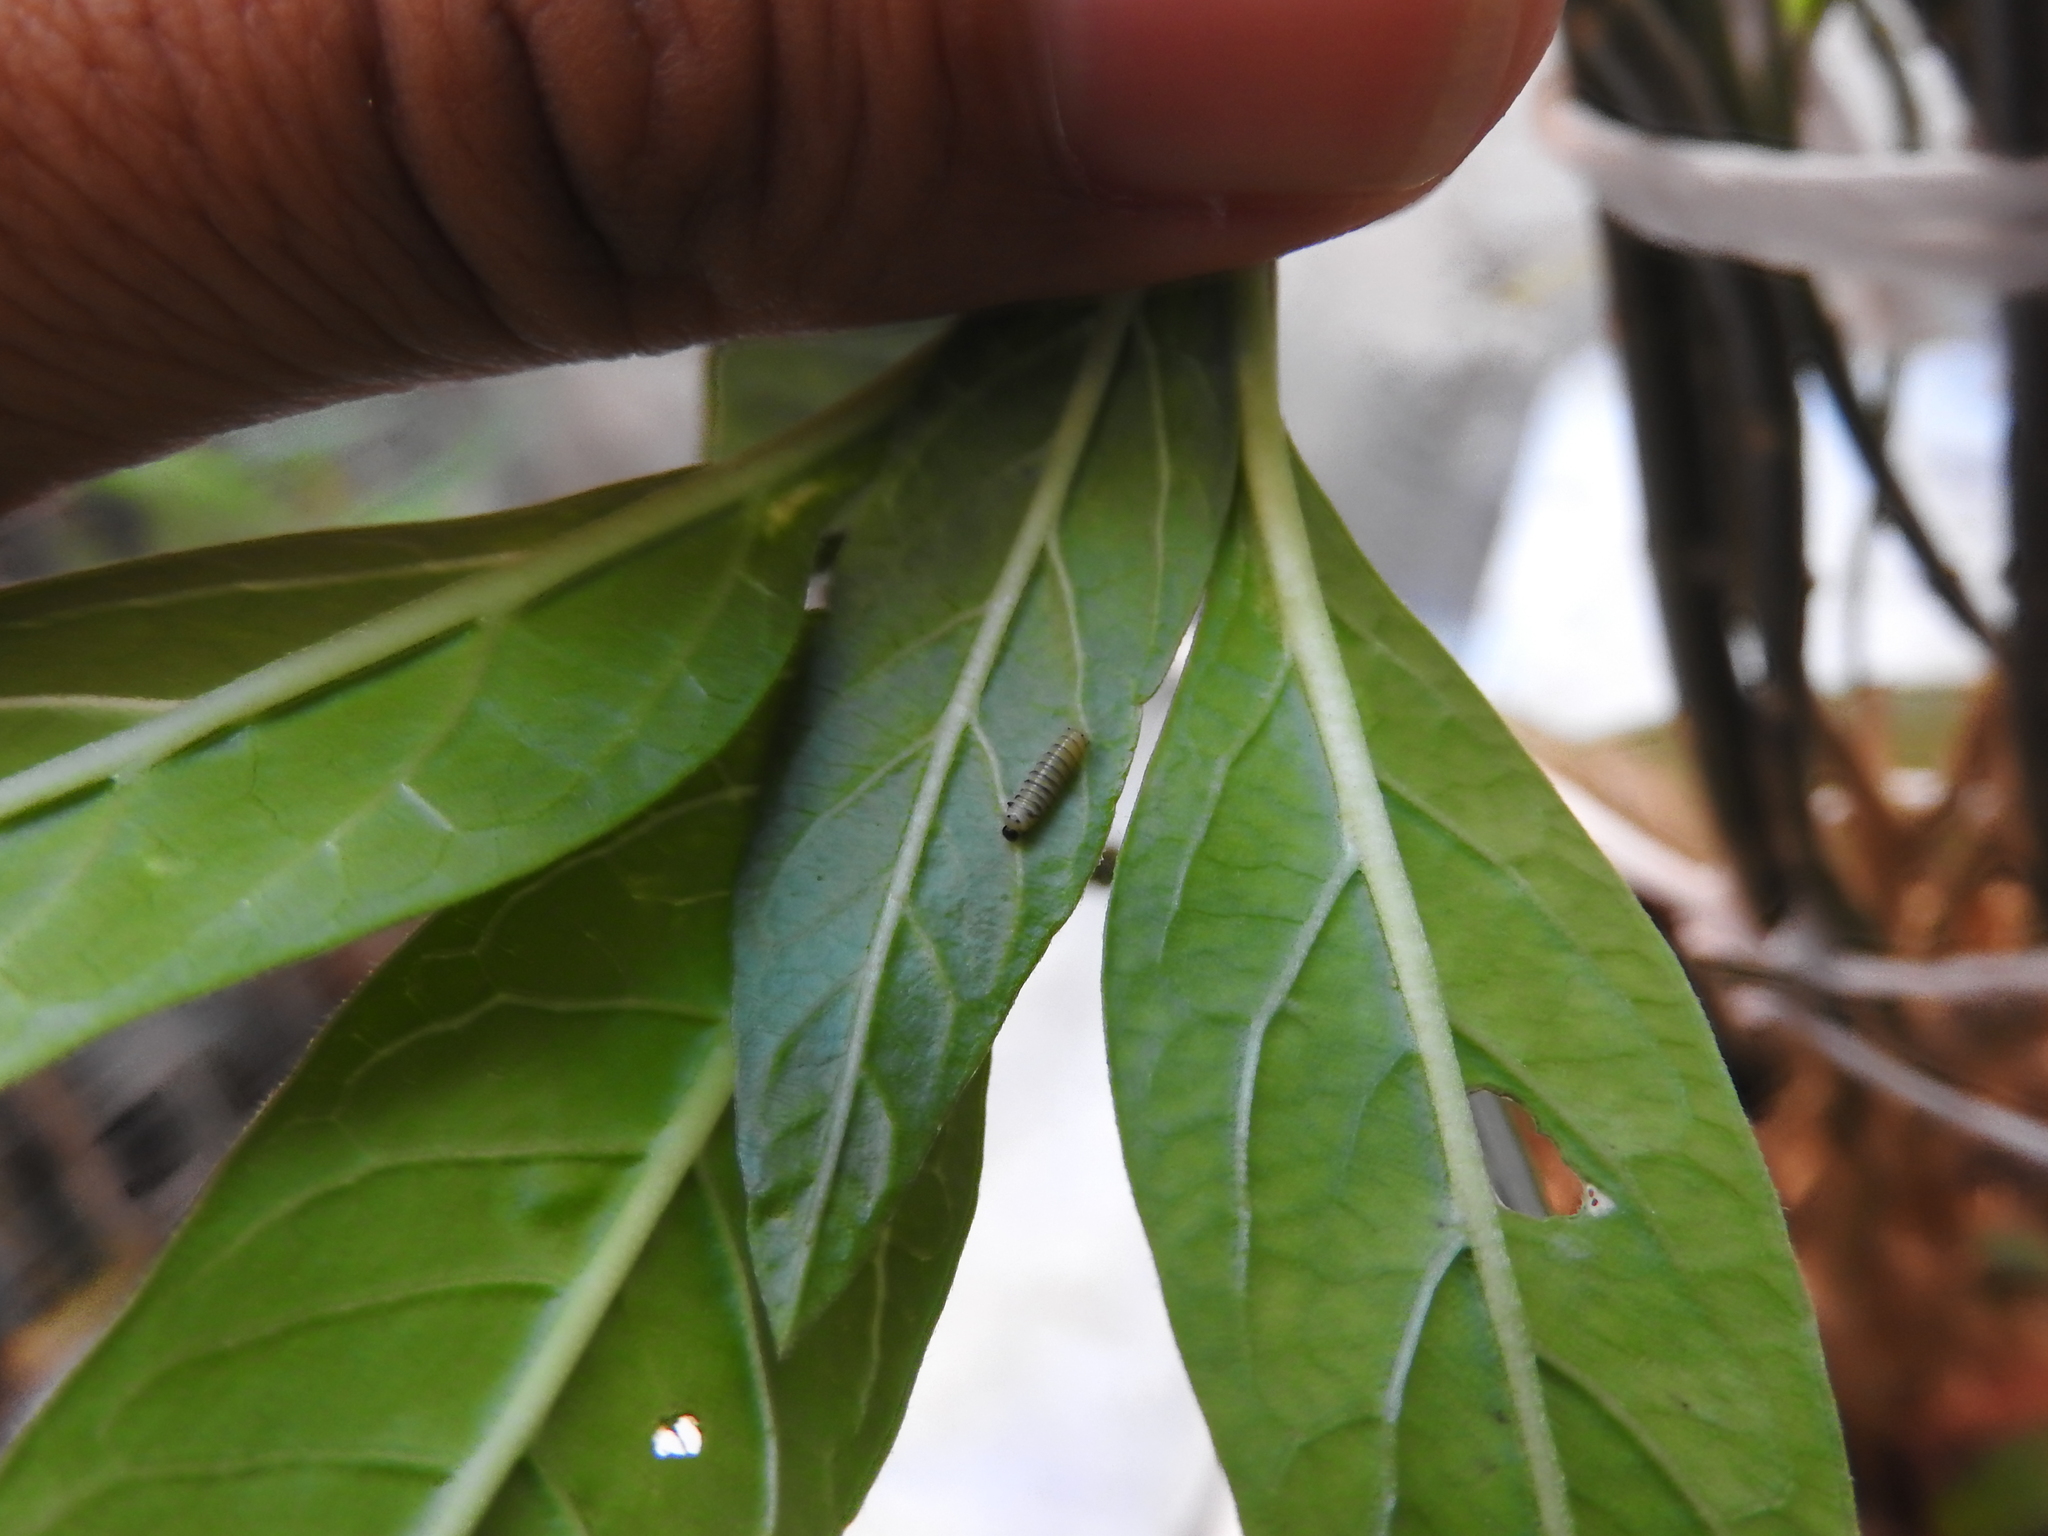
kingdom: Animalia
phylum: Arthropoda
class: Insecta
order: Lepidoptera
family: Nymphalidae
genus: Danaus
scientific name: Danaus plexippus
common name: Monarch
